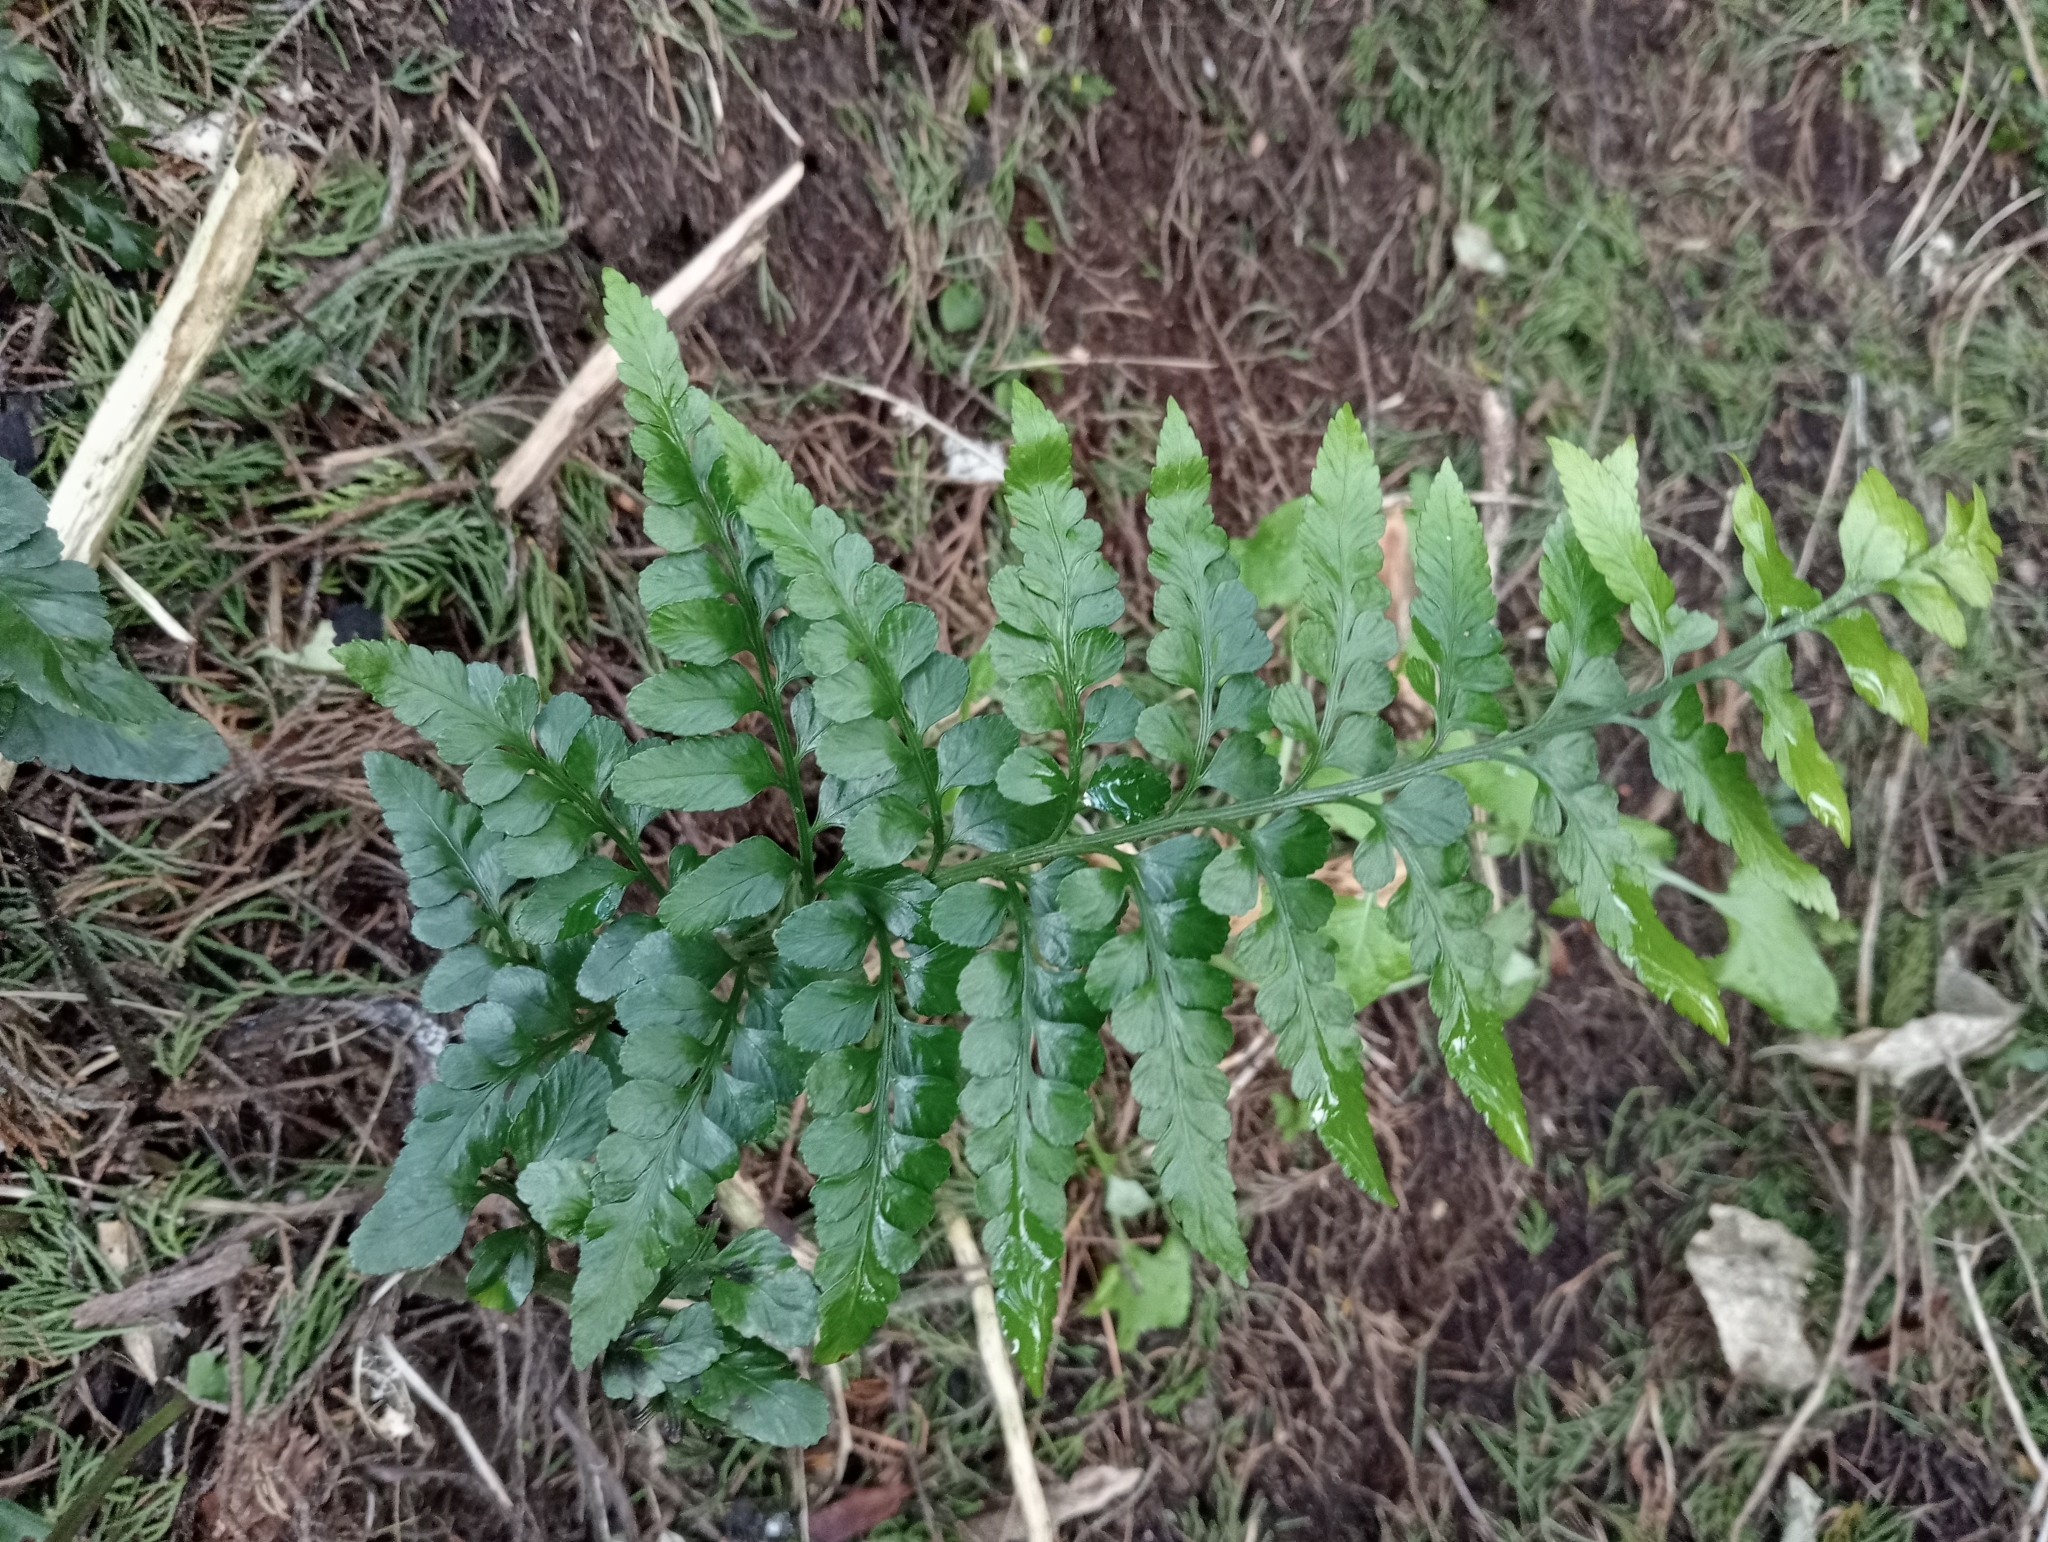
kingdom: Plantae
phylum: Tracheophyta
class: Polypodiopsida
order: Polypodiales
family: Aspleniaceae
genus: Asplenium
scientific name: Asplenium lyallii
